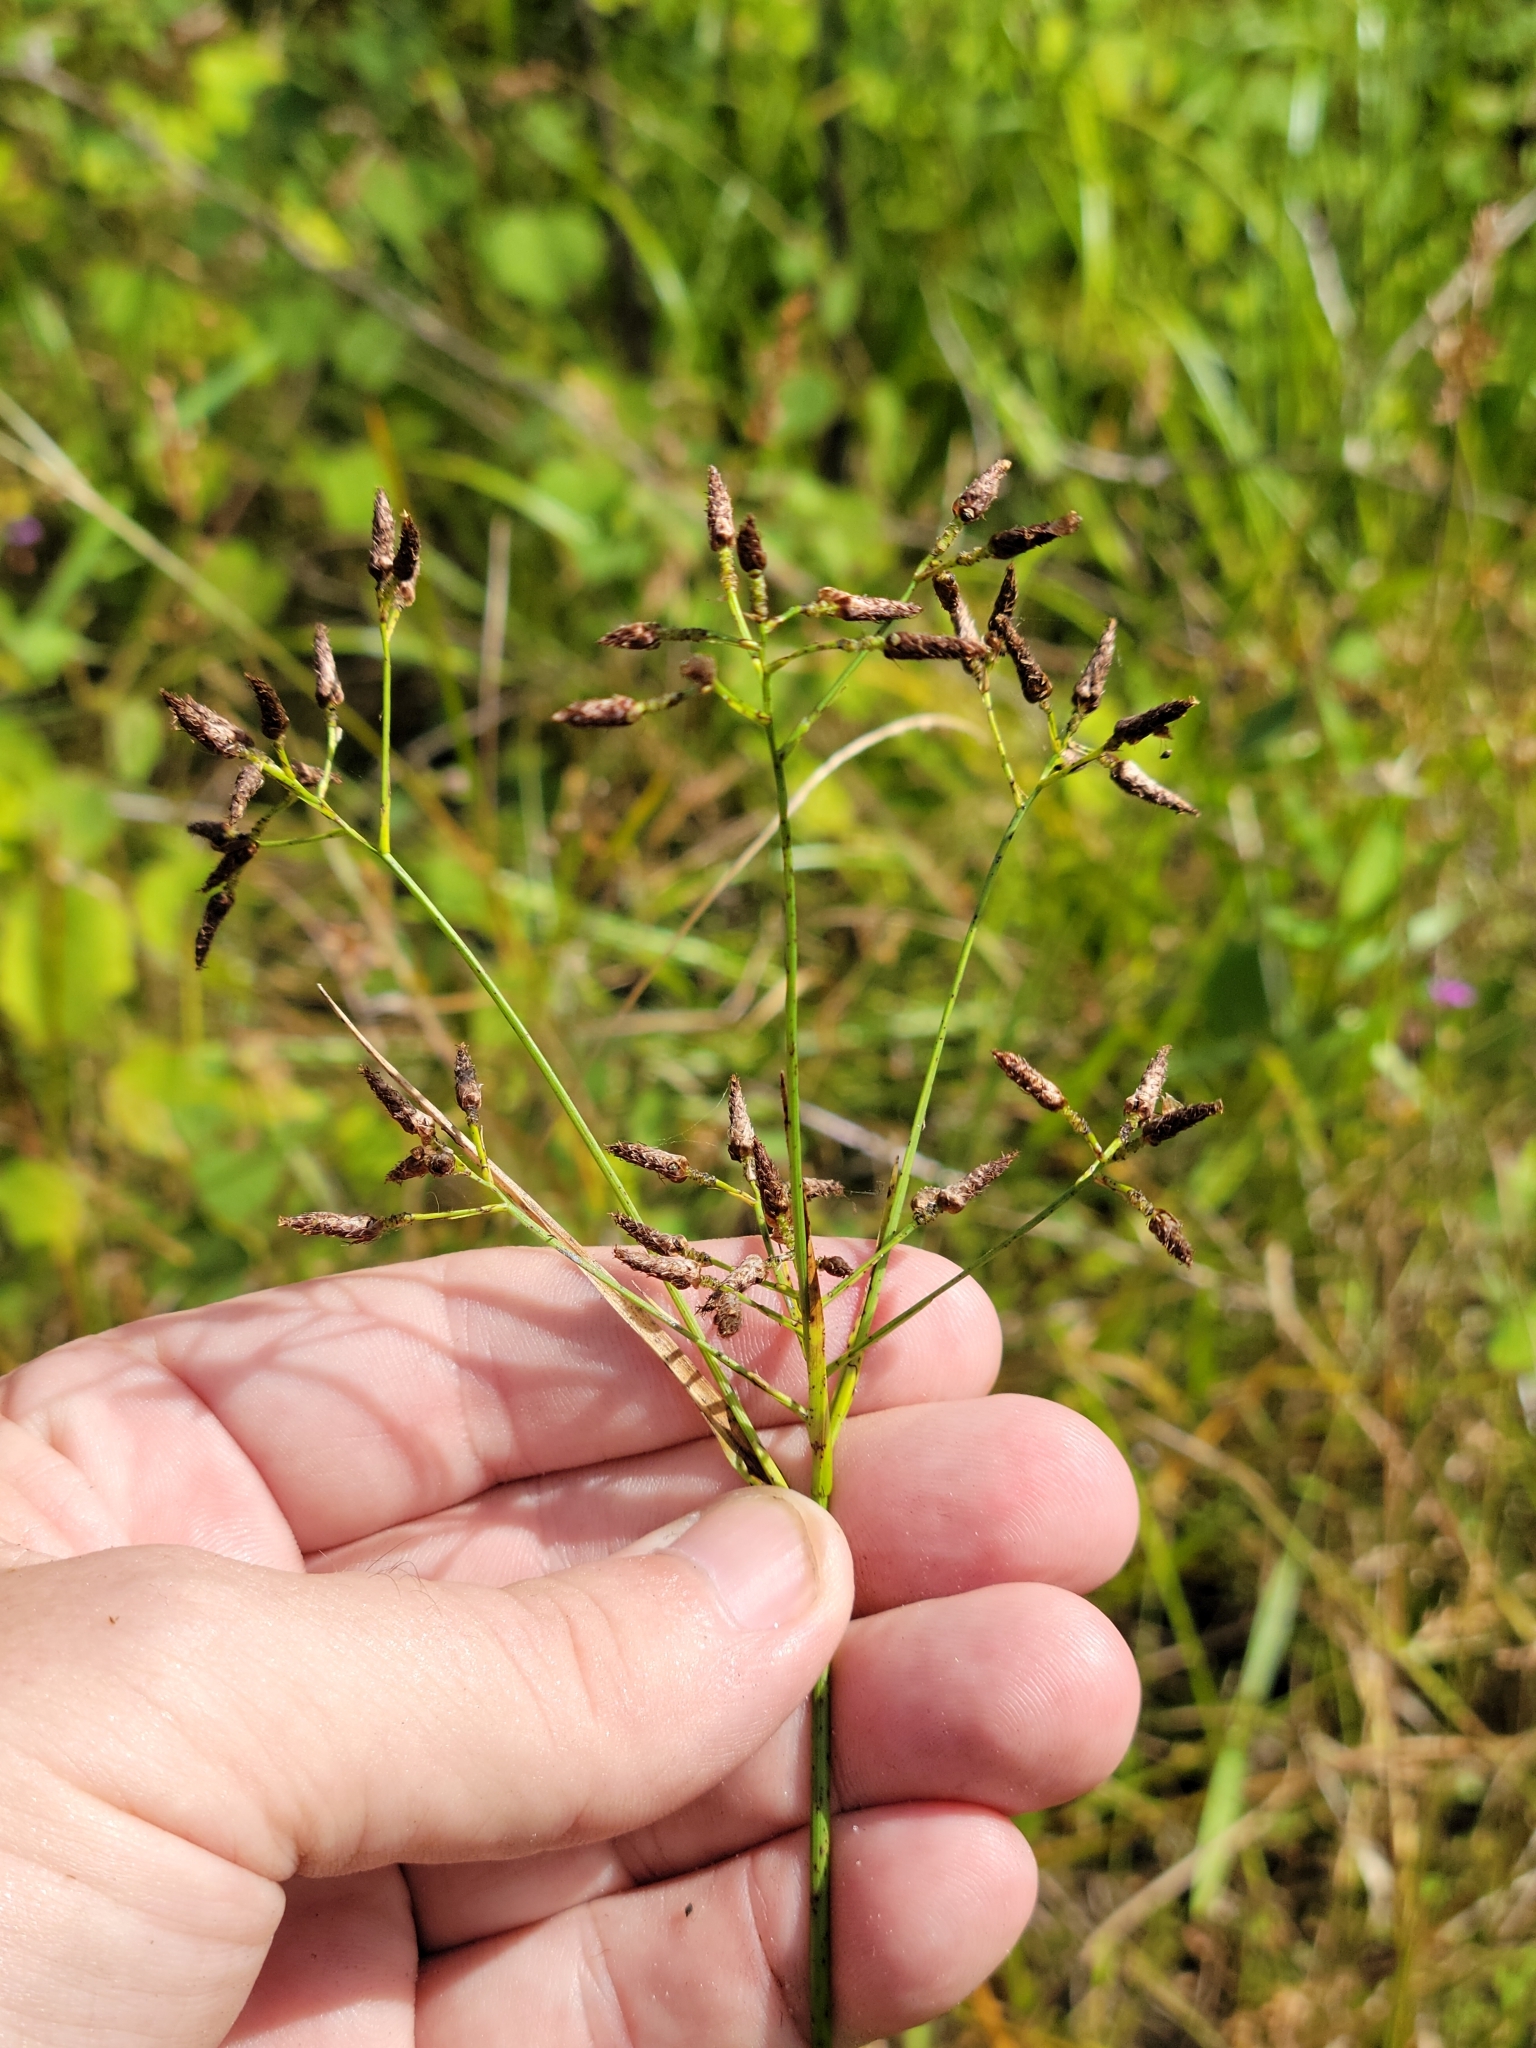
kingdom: Plantae
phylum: Tracheophyta
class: Liliopsida
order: Poales
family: Cyperaceae
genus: Rhynchospora
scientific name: Rhynchospora nitens
